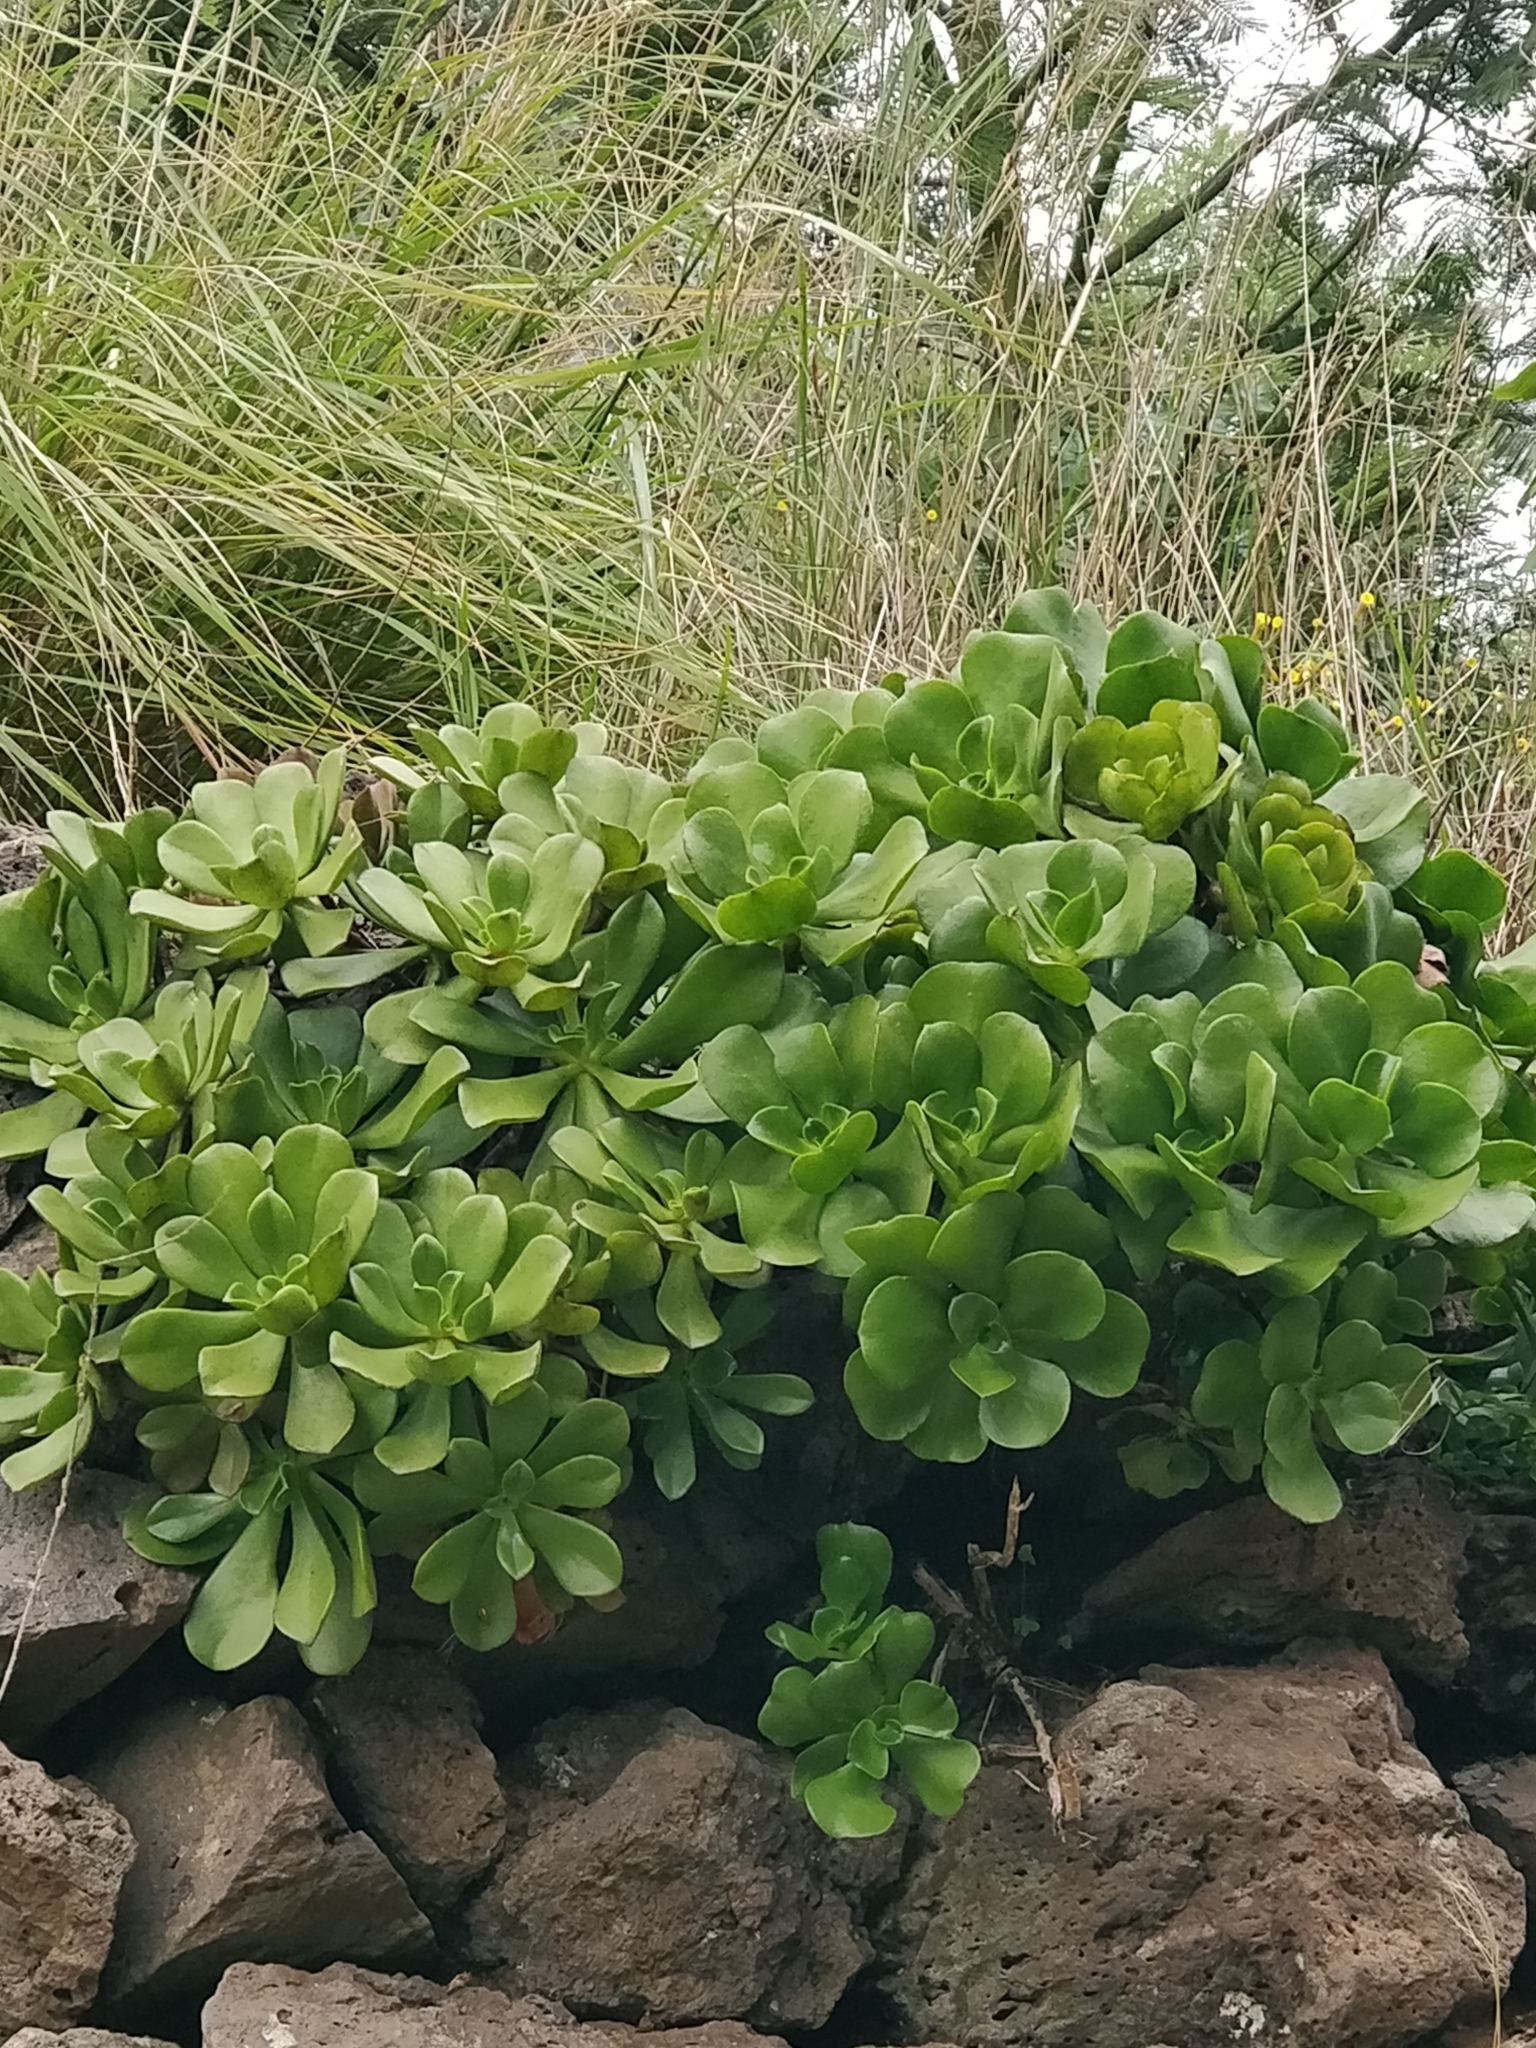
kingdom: Plantae
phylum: Tracheophyta
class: Magnoliopsida
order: Saxifragales
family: Crassulaceae
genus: Aeonium
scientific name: Aeonium glutinosum
